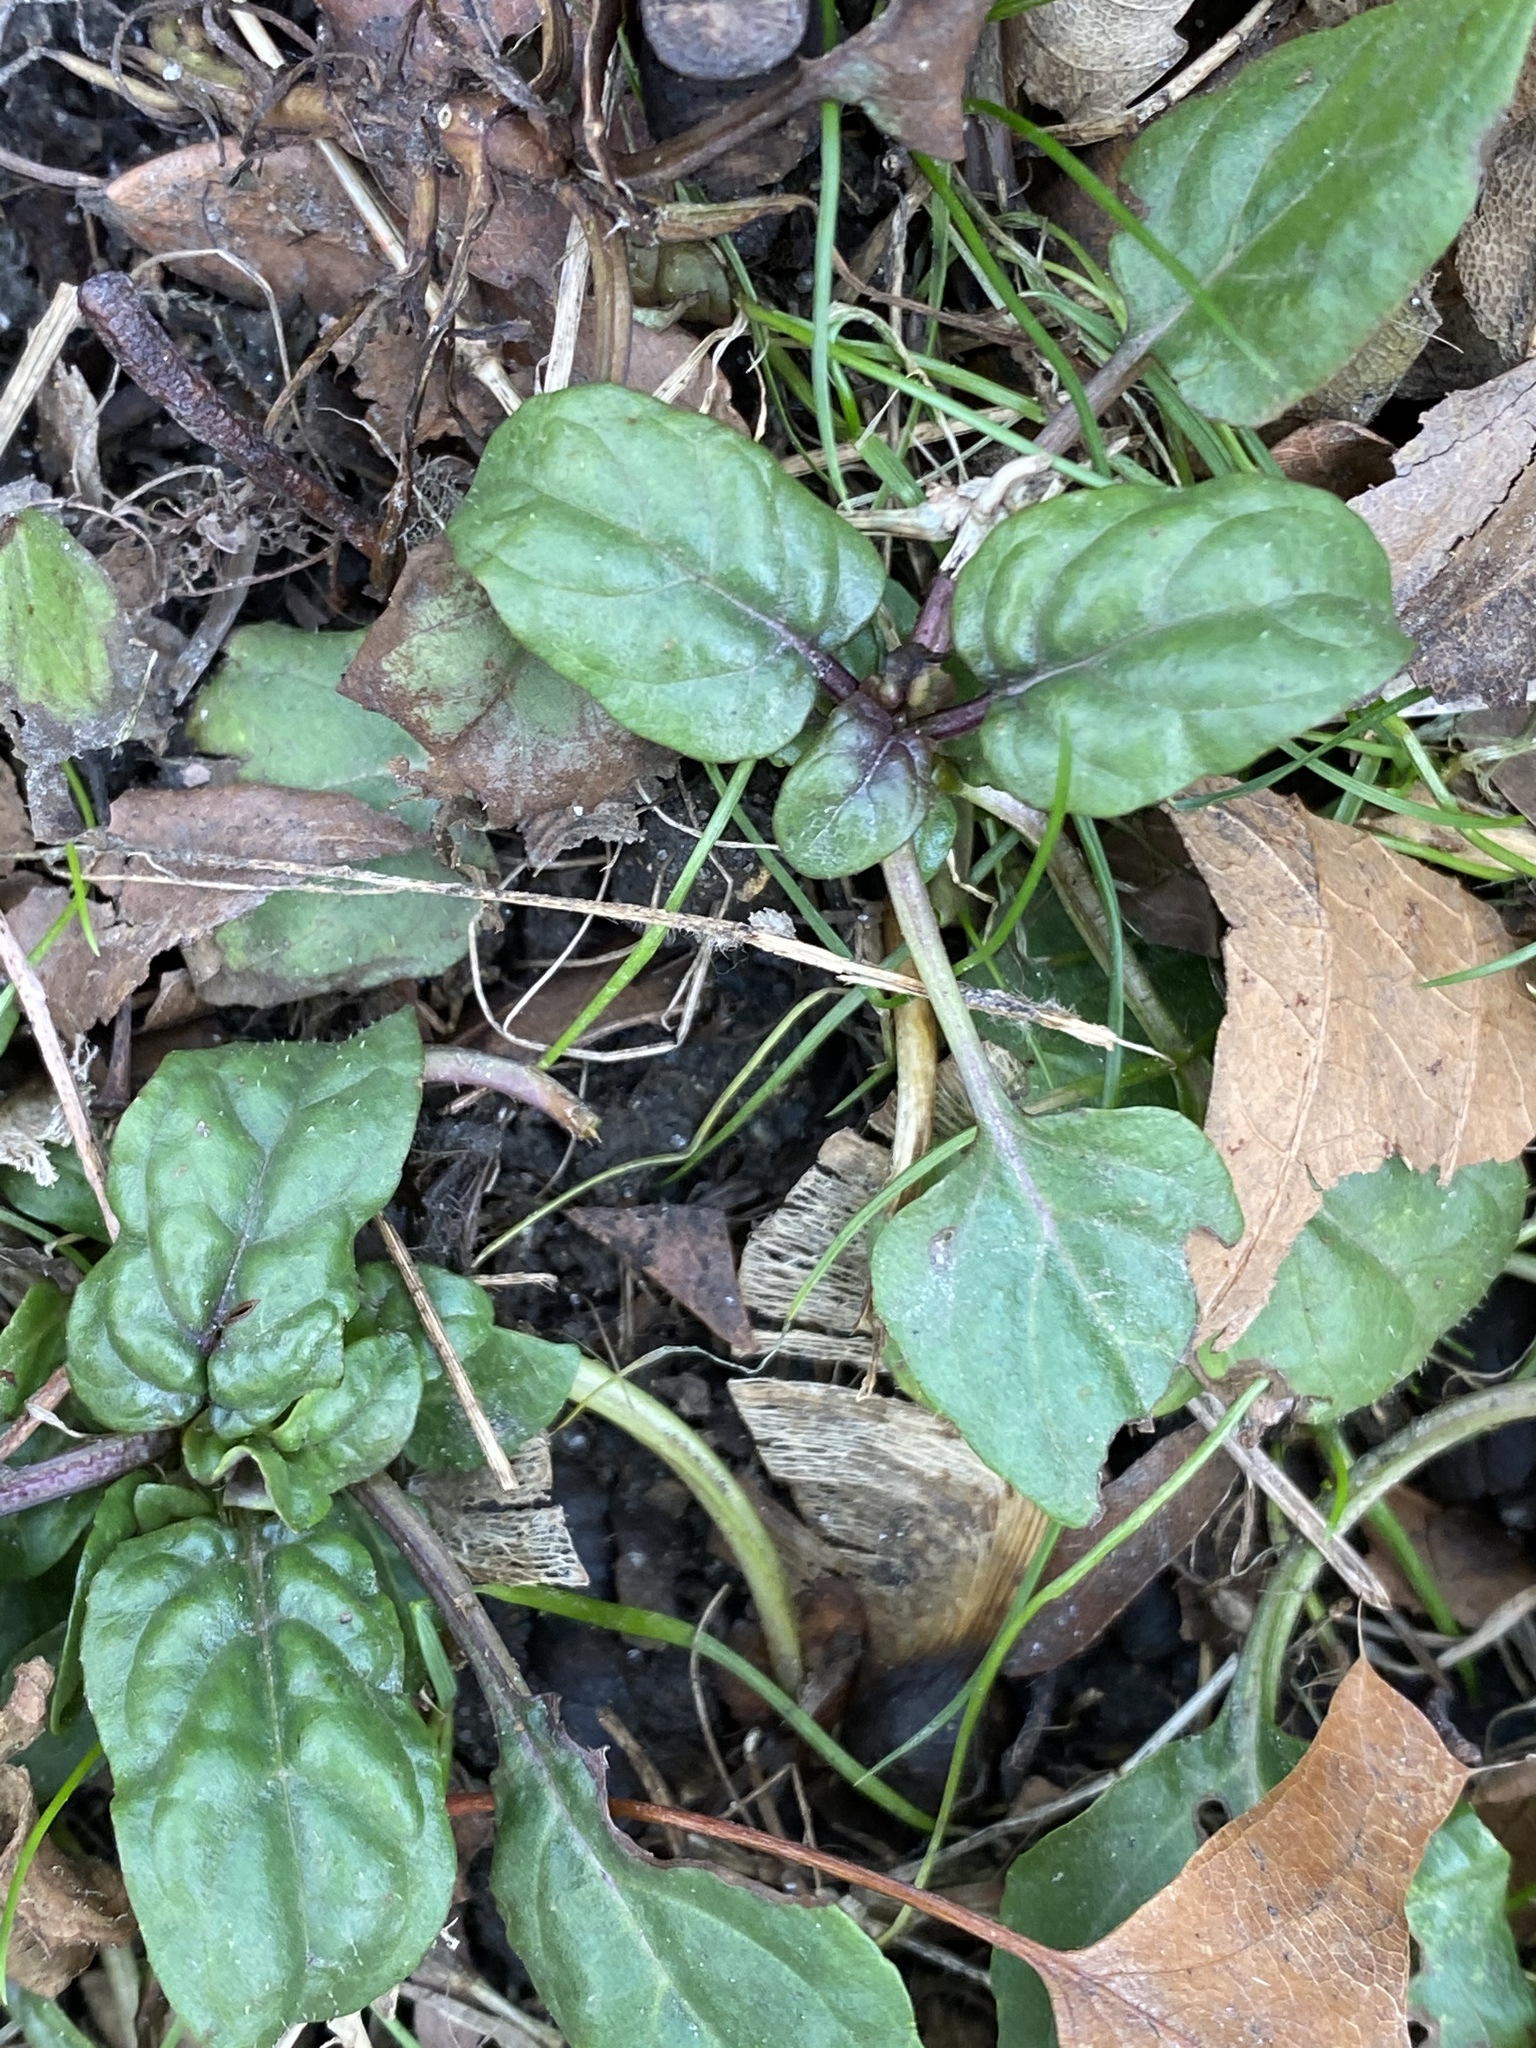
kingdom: Plantae
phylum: Tracheophyta
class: Magnoliopsida
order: Lamiales
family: Lamiaceae
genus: Prunella
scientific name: Prunella vulgaris
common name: Heal-all
